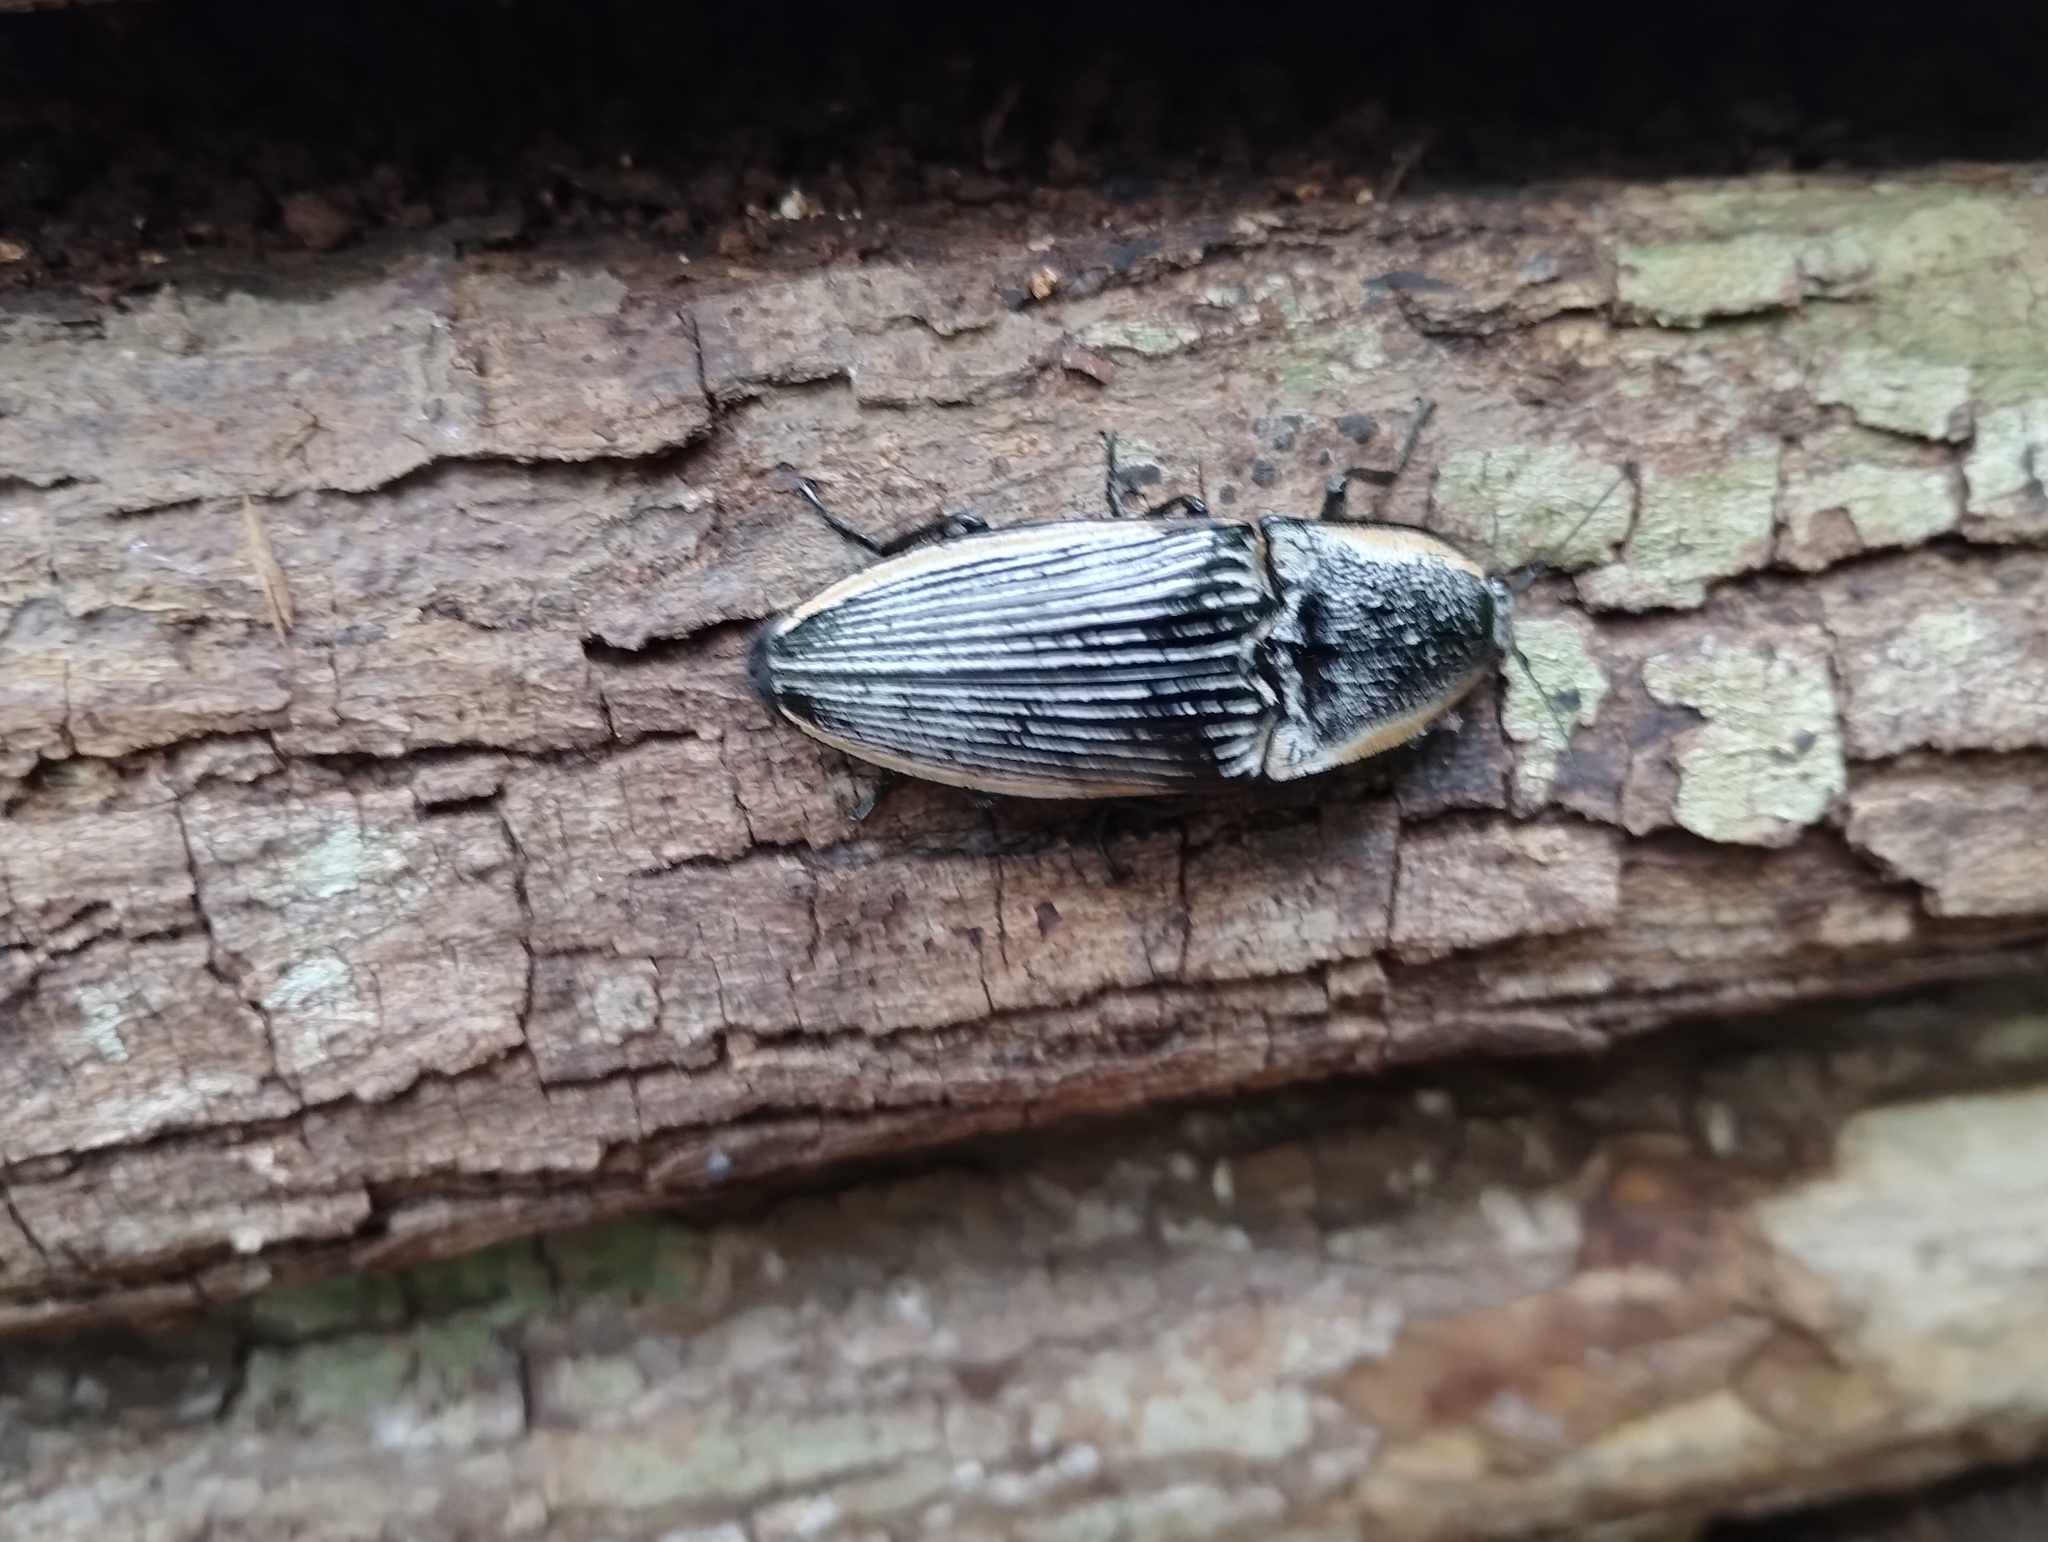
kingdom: Animalia
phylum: Arthropoda
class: Insecta
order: Coleoptera
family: Elateridae
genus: Chalcolepidius
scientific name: Chalcolepidius
